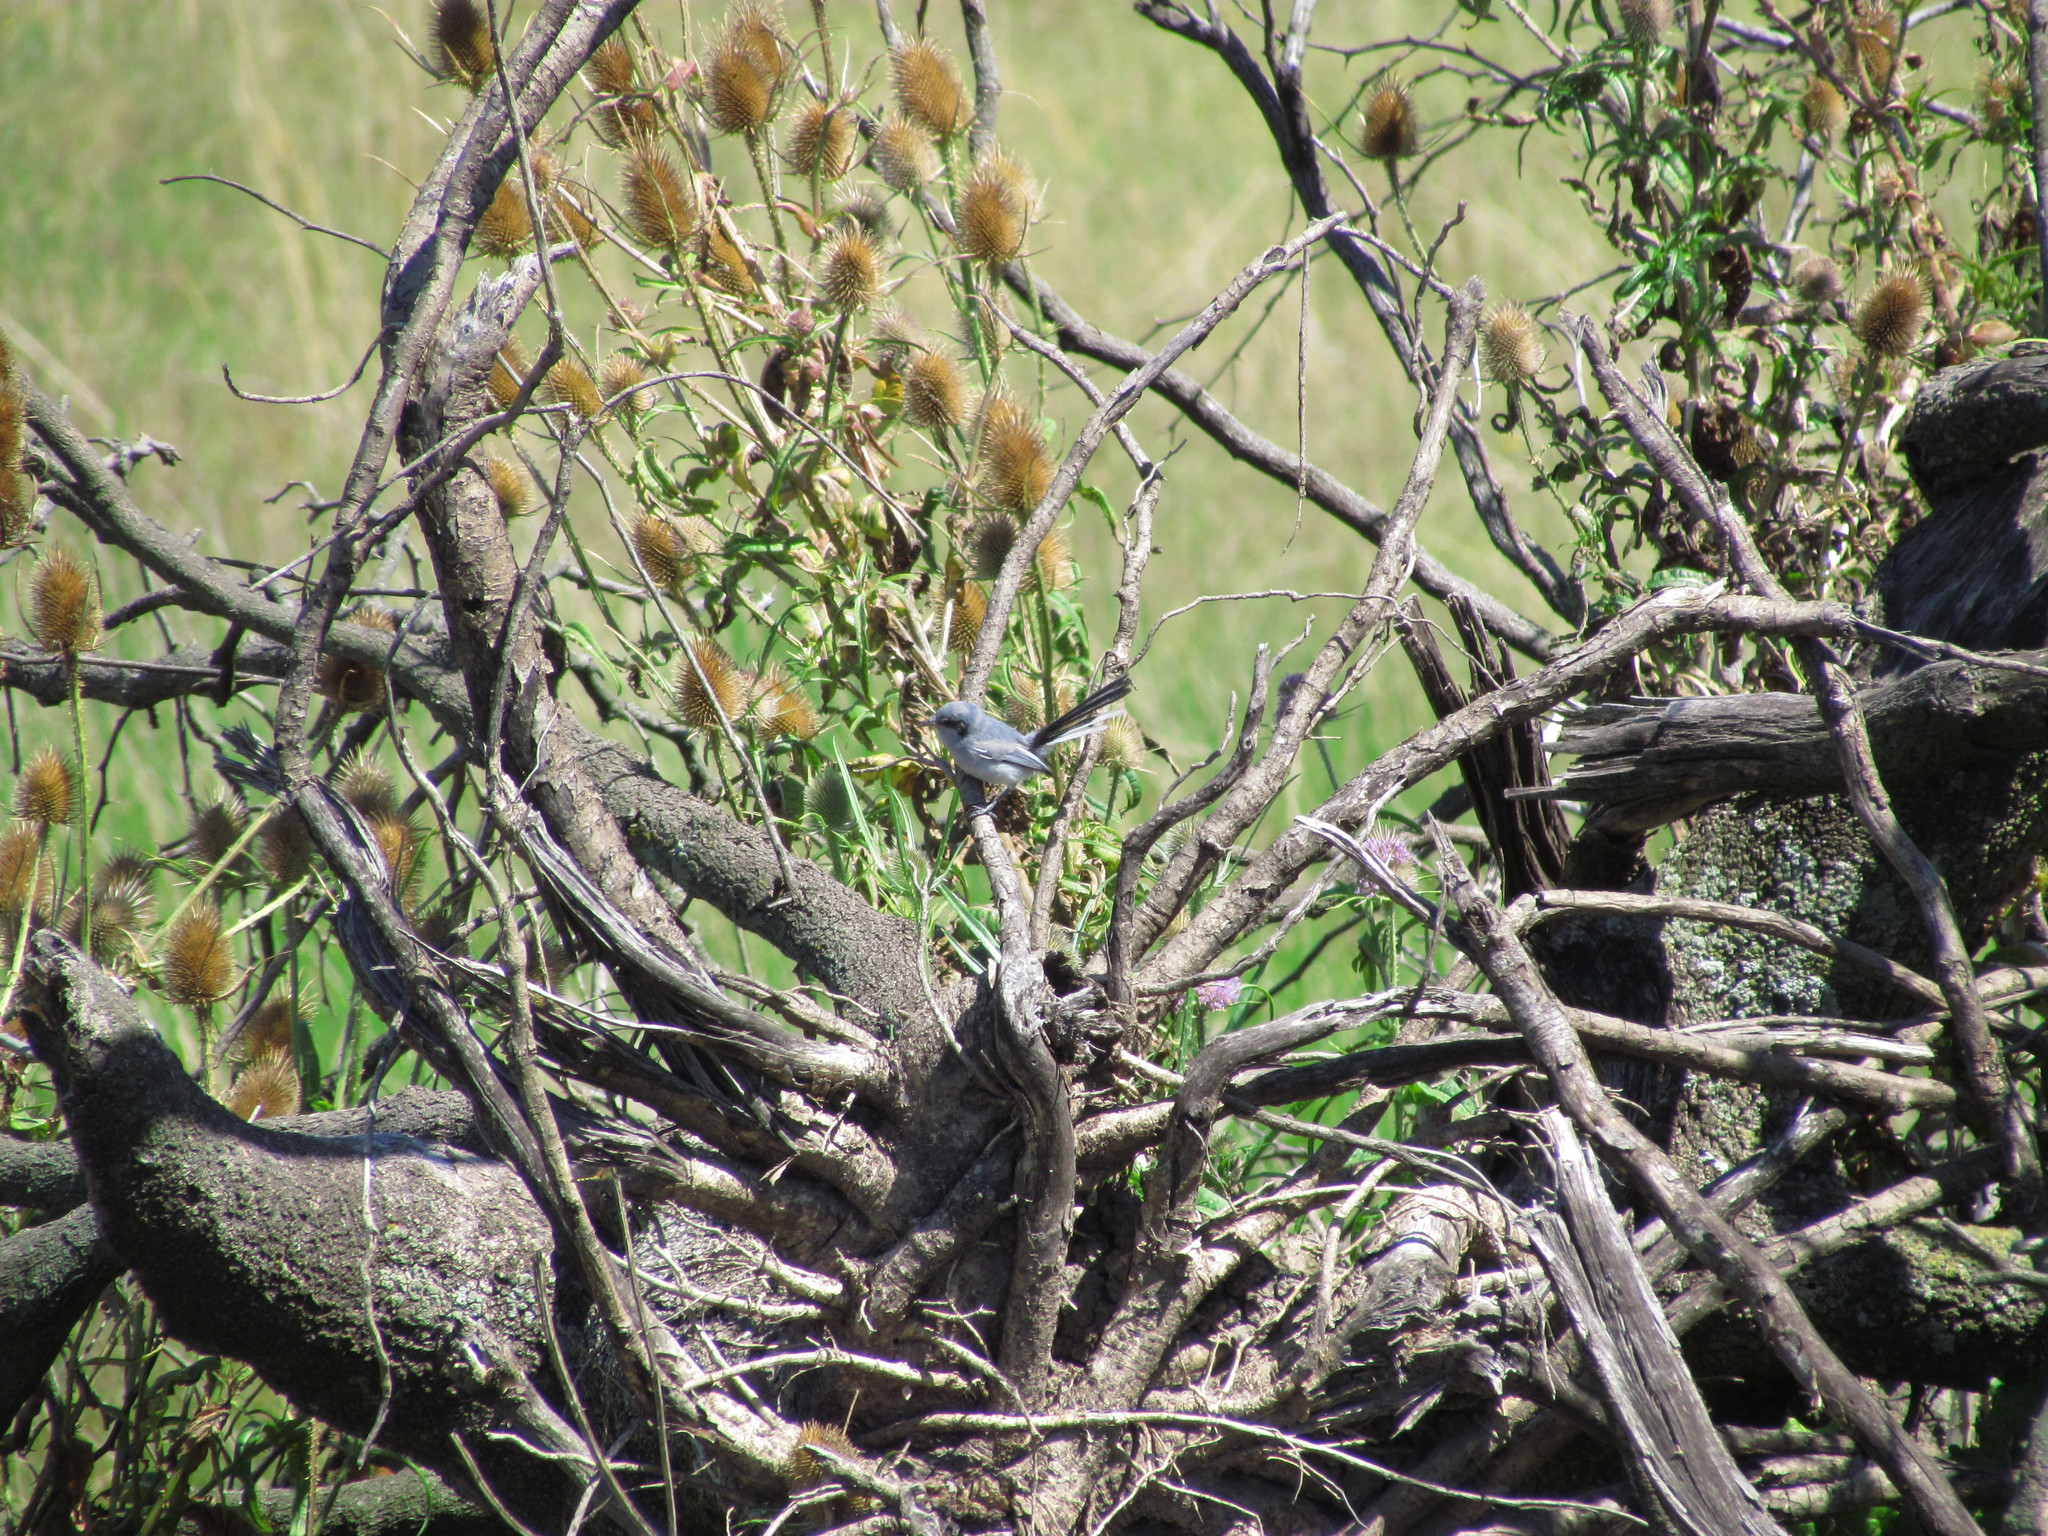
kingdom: Animalia
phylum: Chordata
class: Aves
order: Passeriformes
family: Polioptilidae
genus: Polioptila
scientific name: Polioptila dumicola
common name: Masked gnatcatcher
